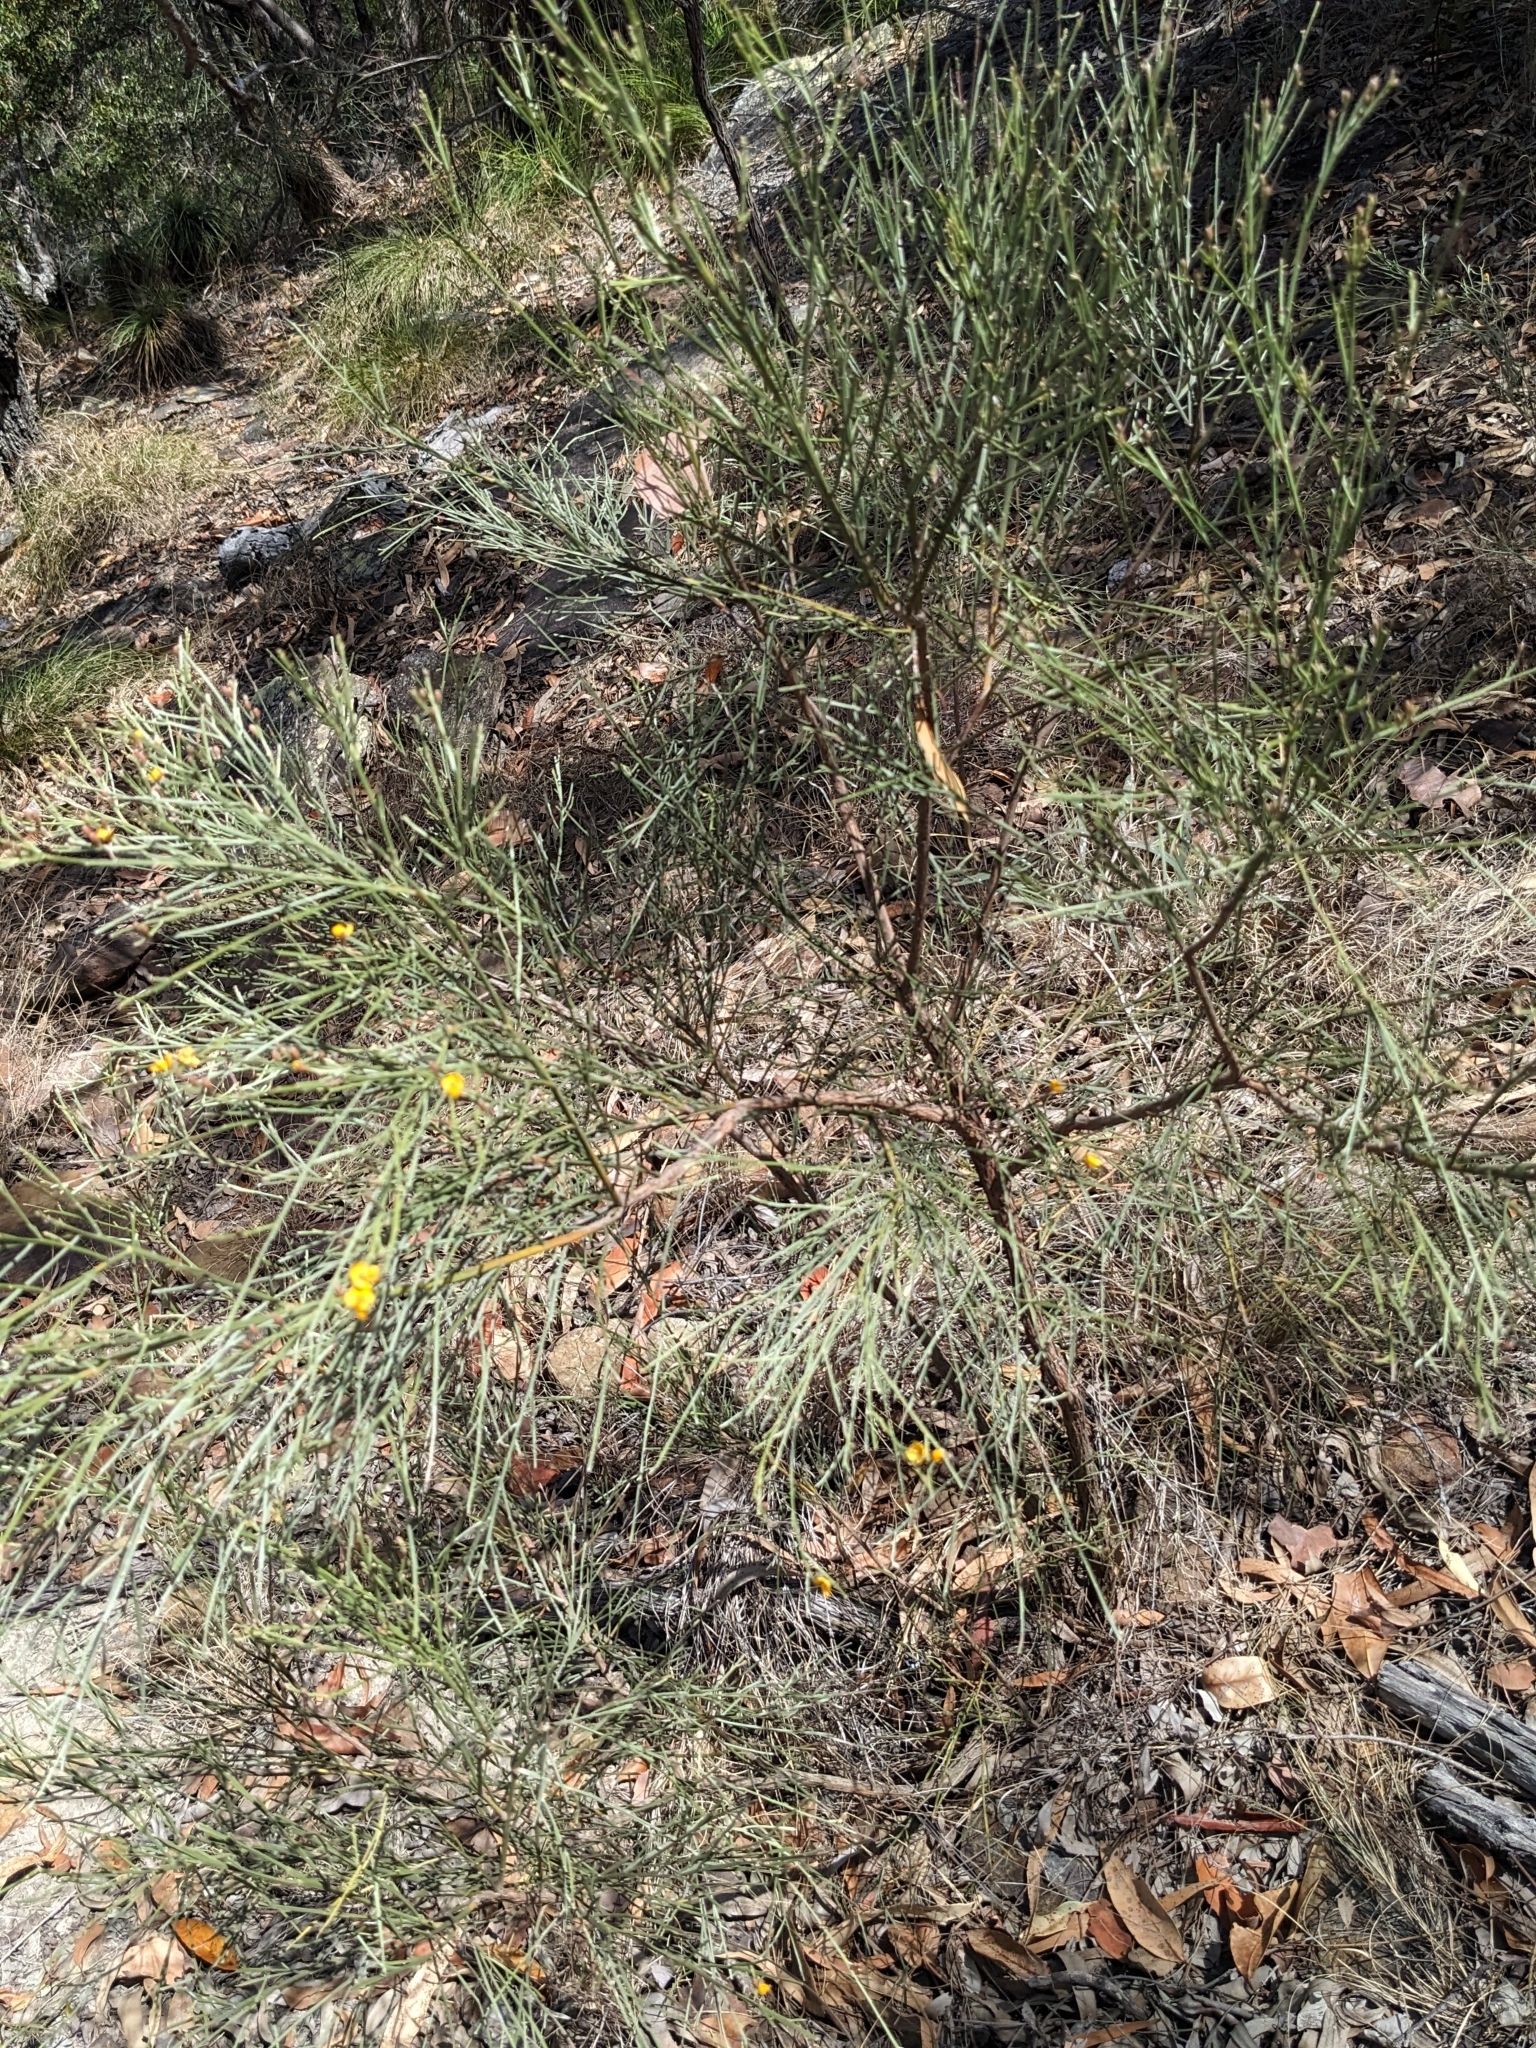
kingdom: Plantae
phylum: Tracheophyta
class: Magnoliopsida
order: Fabales
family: Fabaceae
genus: Jacksonia
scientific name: Jacksonia scoparia
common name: Dogwood
